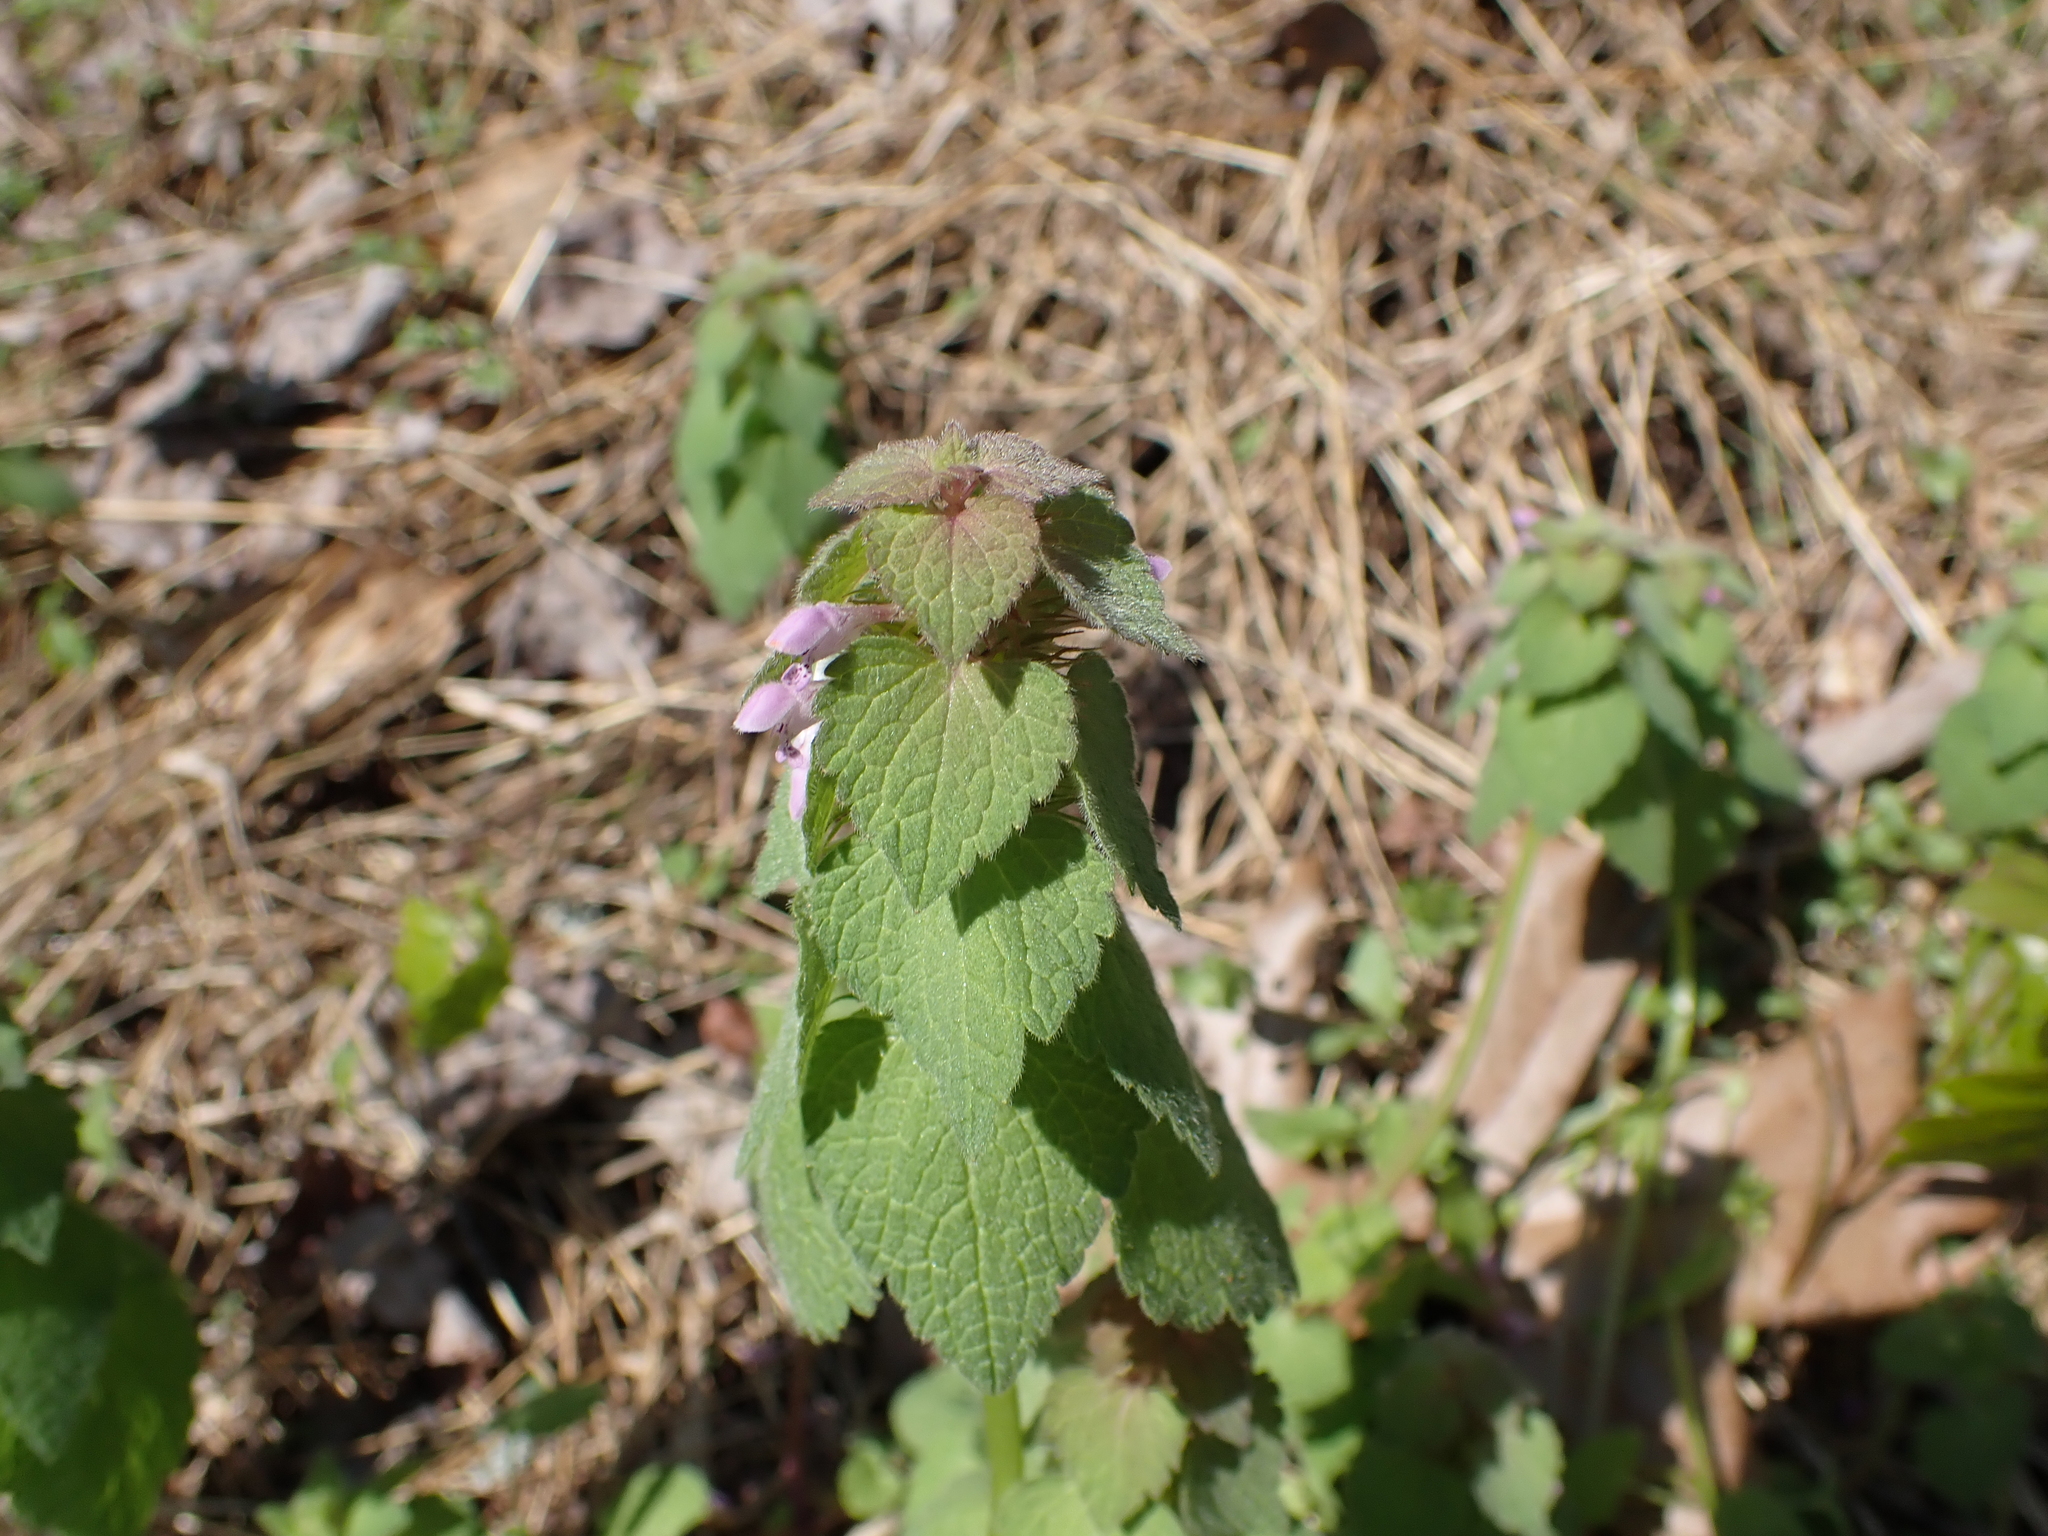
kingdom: Plantae
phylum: Tracheophyta
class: Magnoliopsida
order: Lamiales
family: Lamiaceae
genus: Lamium
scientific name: Lamium purpureum
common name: Red dead-nettle
